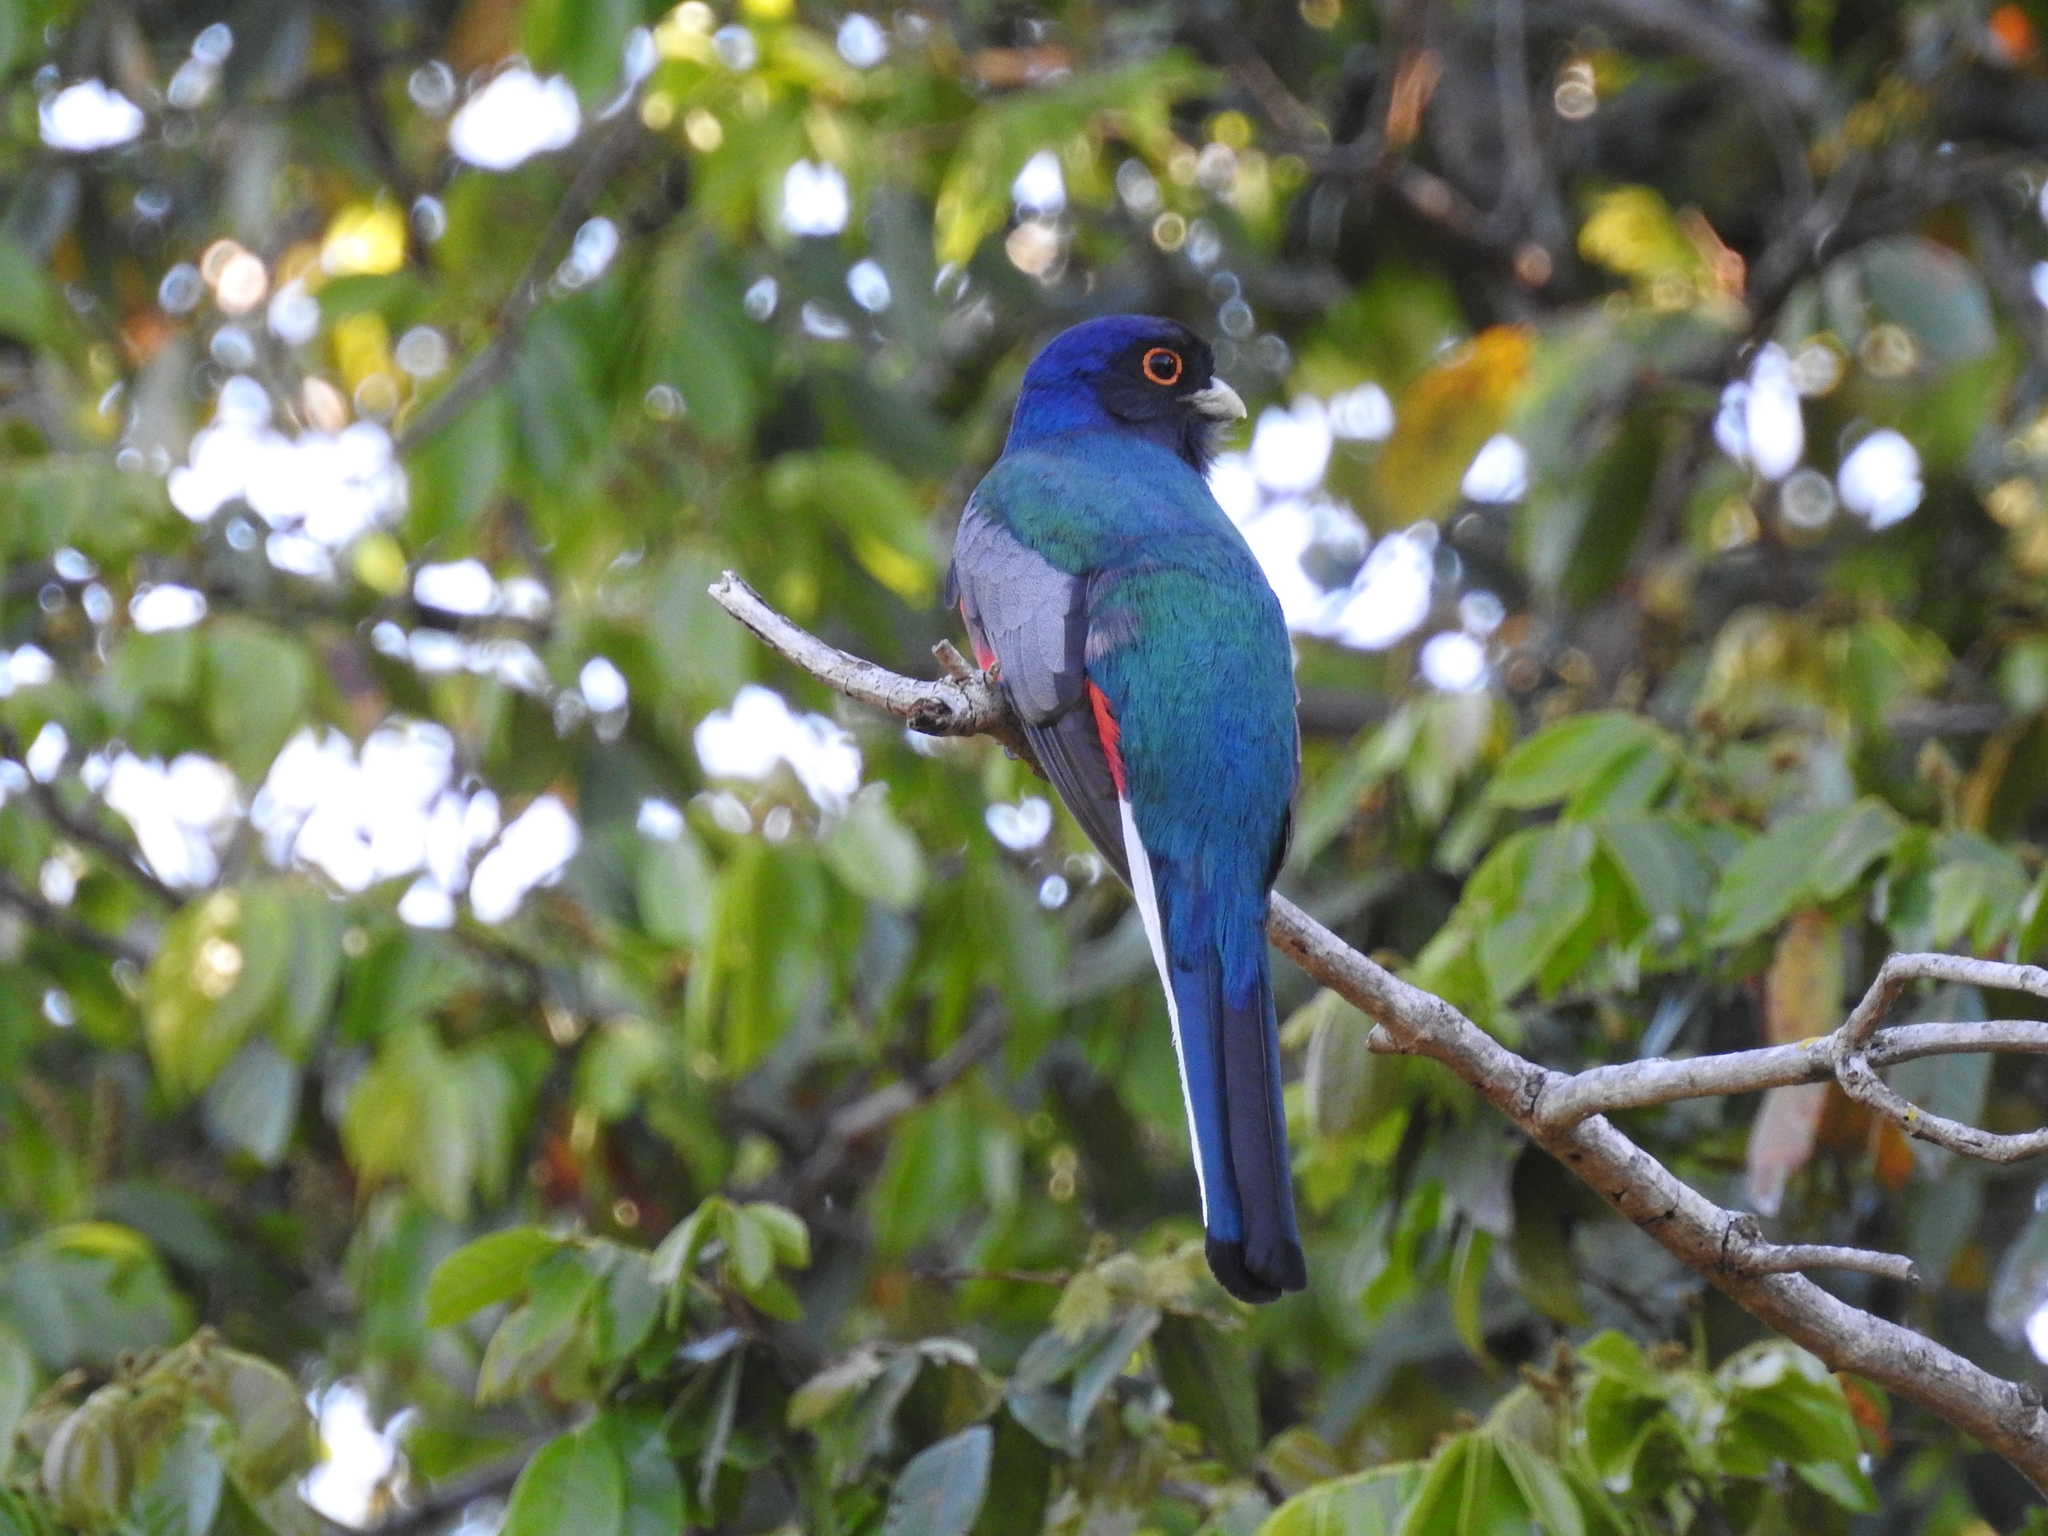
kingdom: Animalia
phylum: Chordata
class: Aves
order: Trogoniformes
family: Trogonidae
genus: Trogon
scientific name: Trogon surrucura
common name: Surucua trogon
